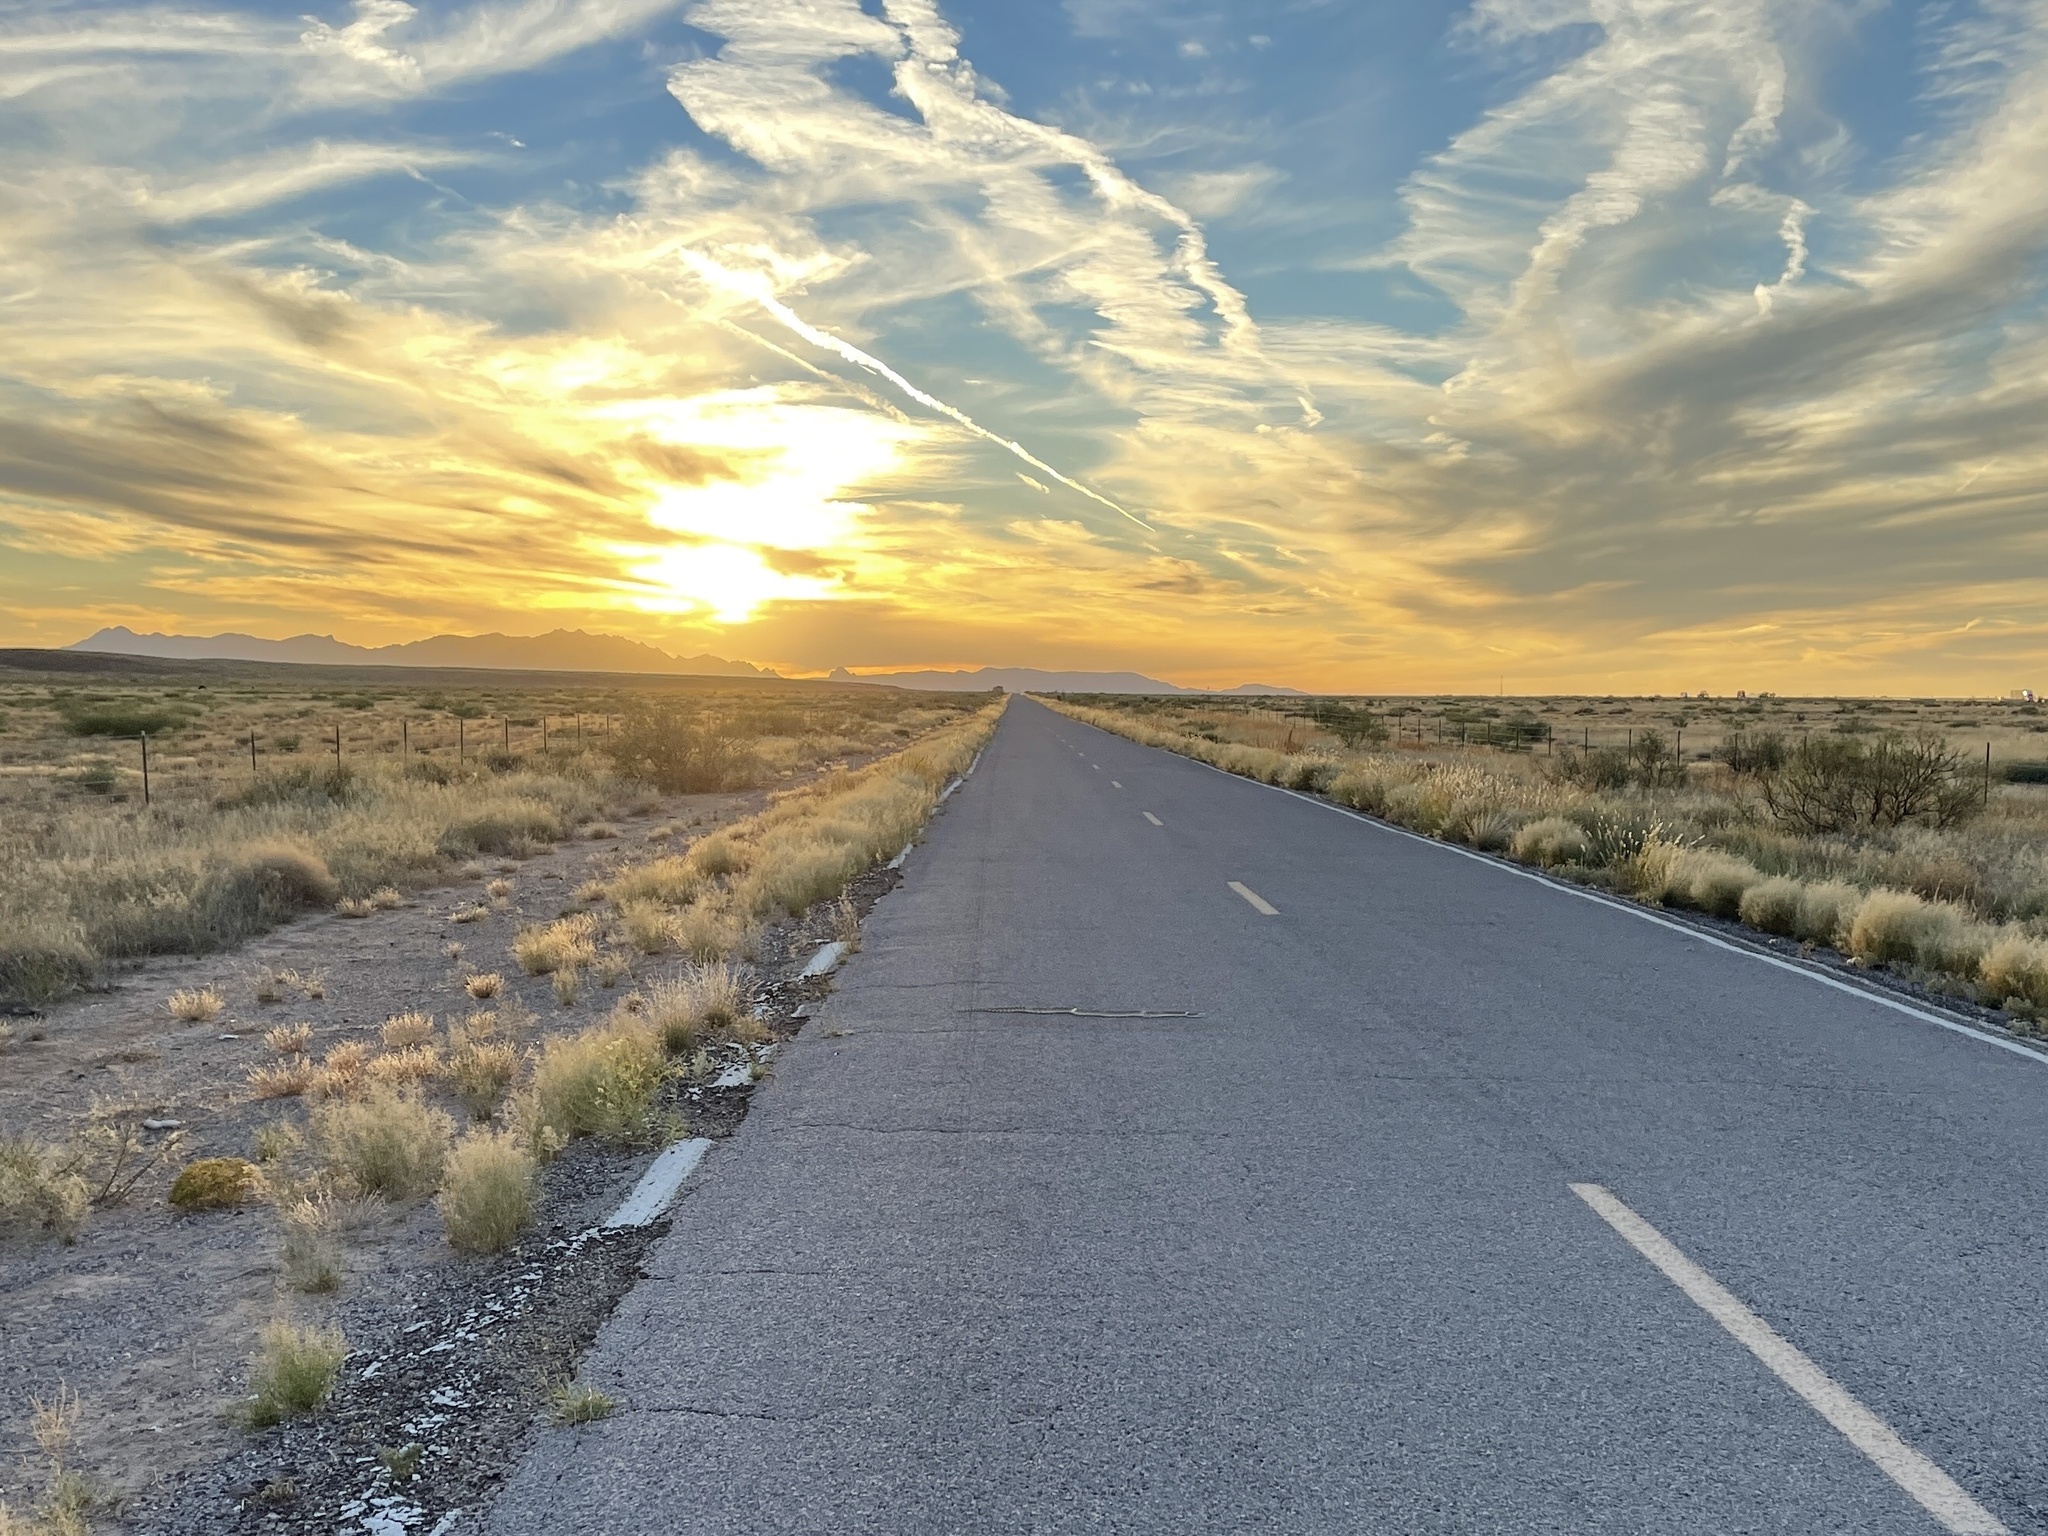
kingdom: Animalia
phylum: Chordata
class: Squamata
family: Colubridae
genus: Pituophis
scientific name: Pituophis catenifer
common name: Gopher snake
